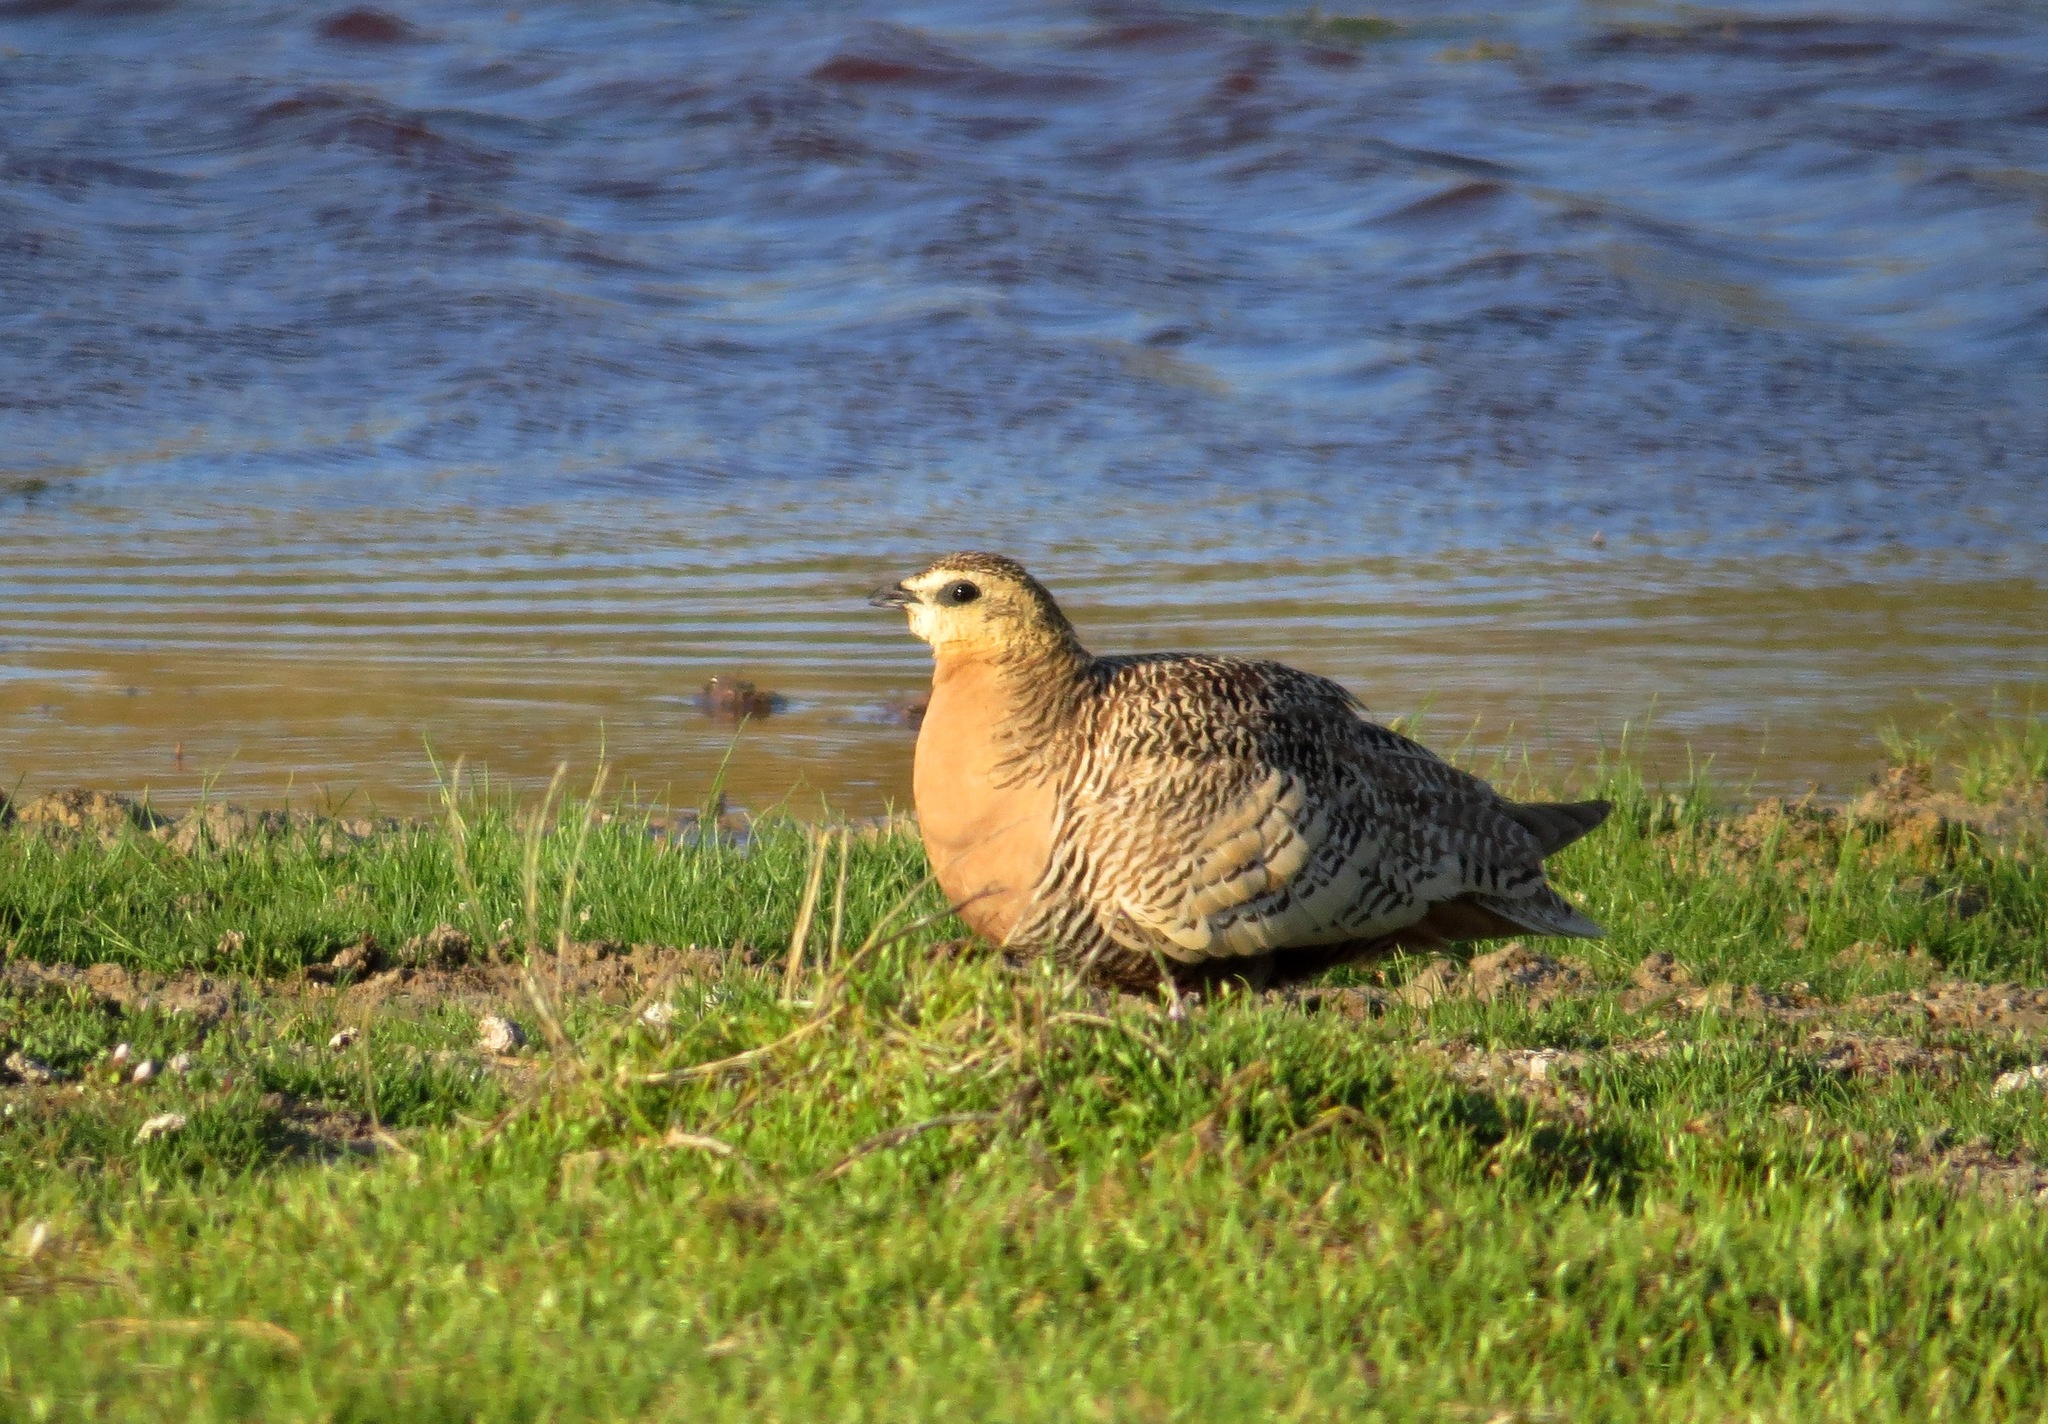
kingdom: Animalia
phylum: Chordata
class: Aves
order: Pteroclidiformes
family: Pteroclididae
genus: Pterocles
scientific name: Pterocles personatus
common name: Madagascar sandgrouse
